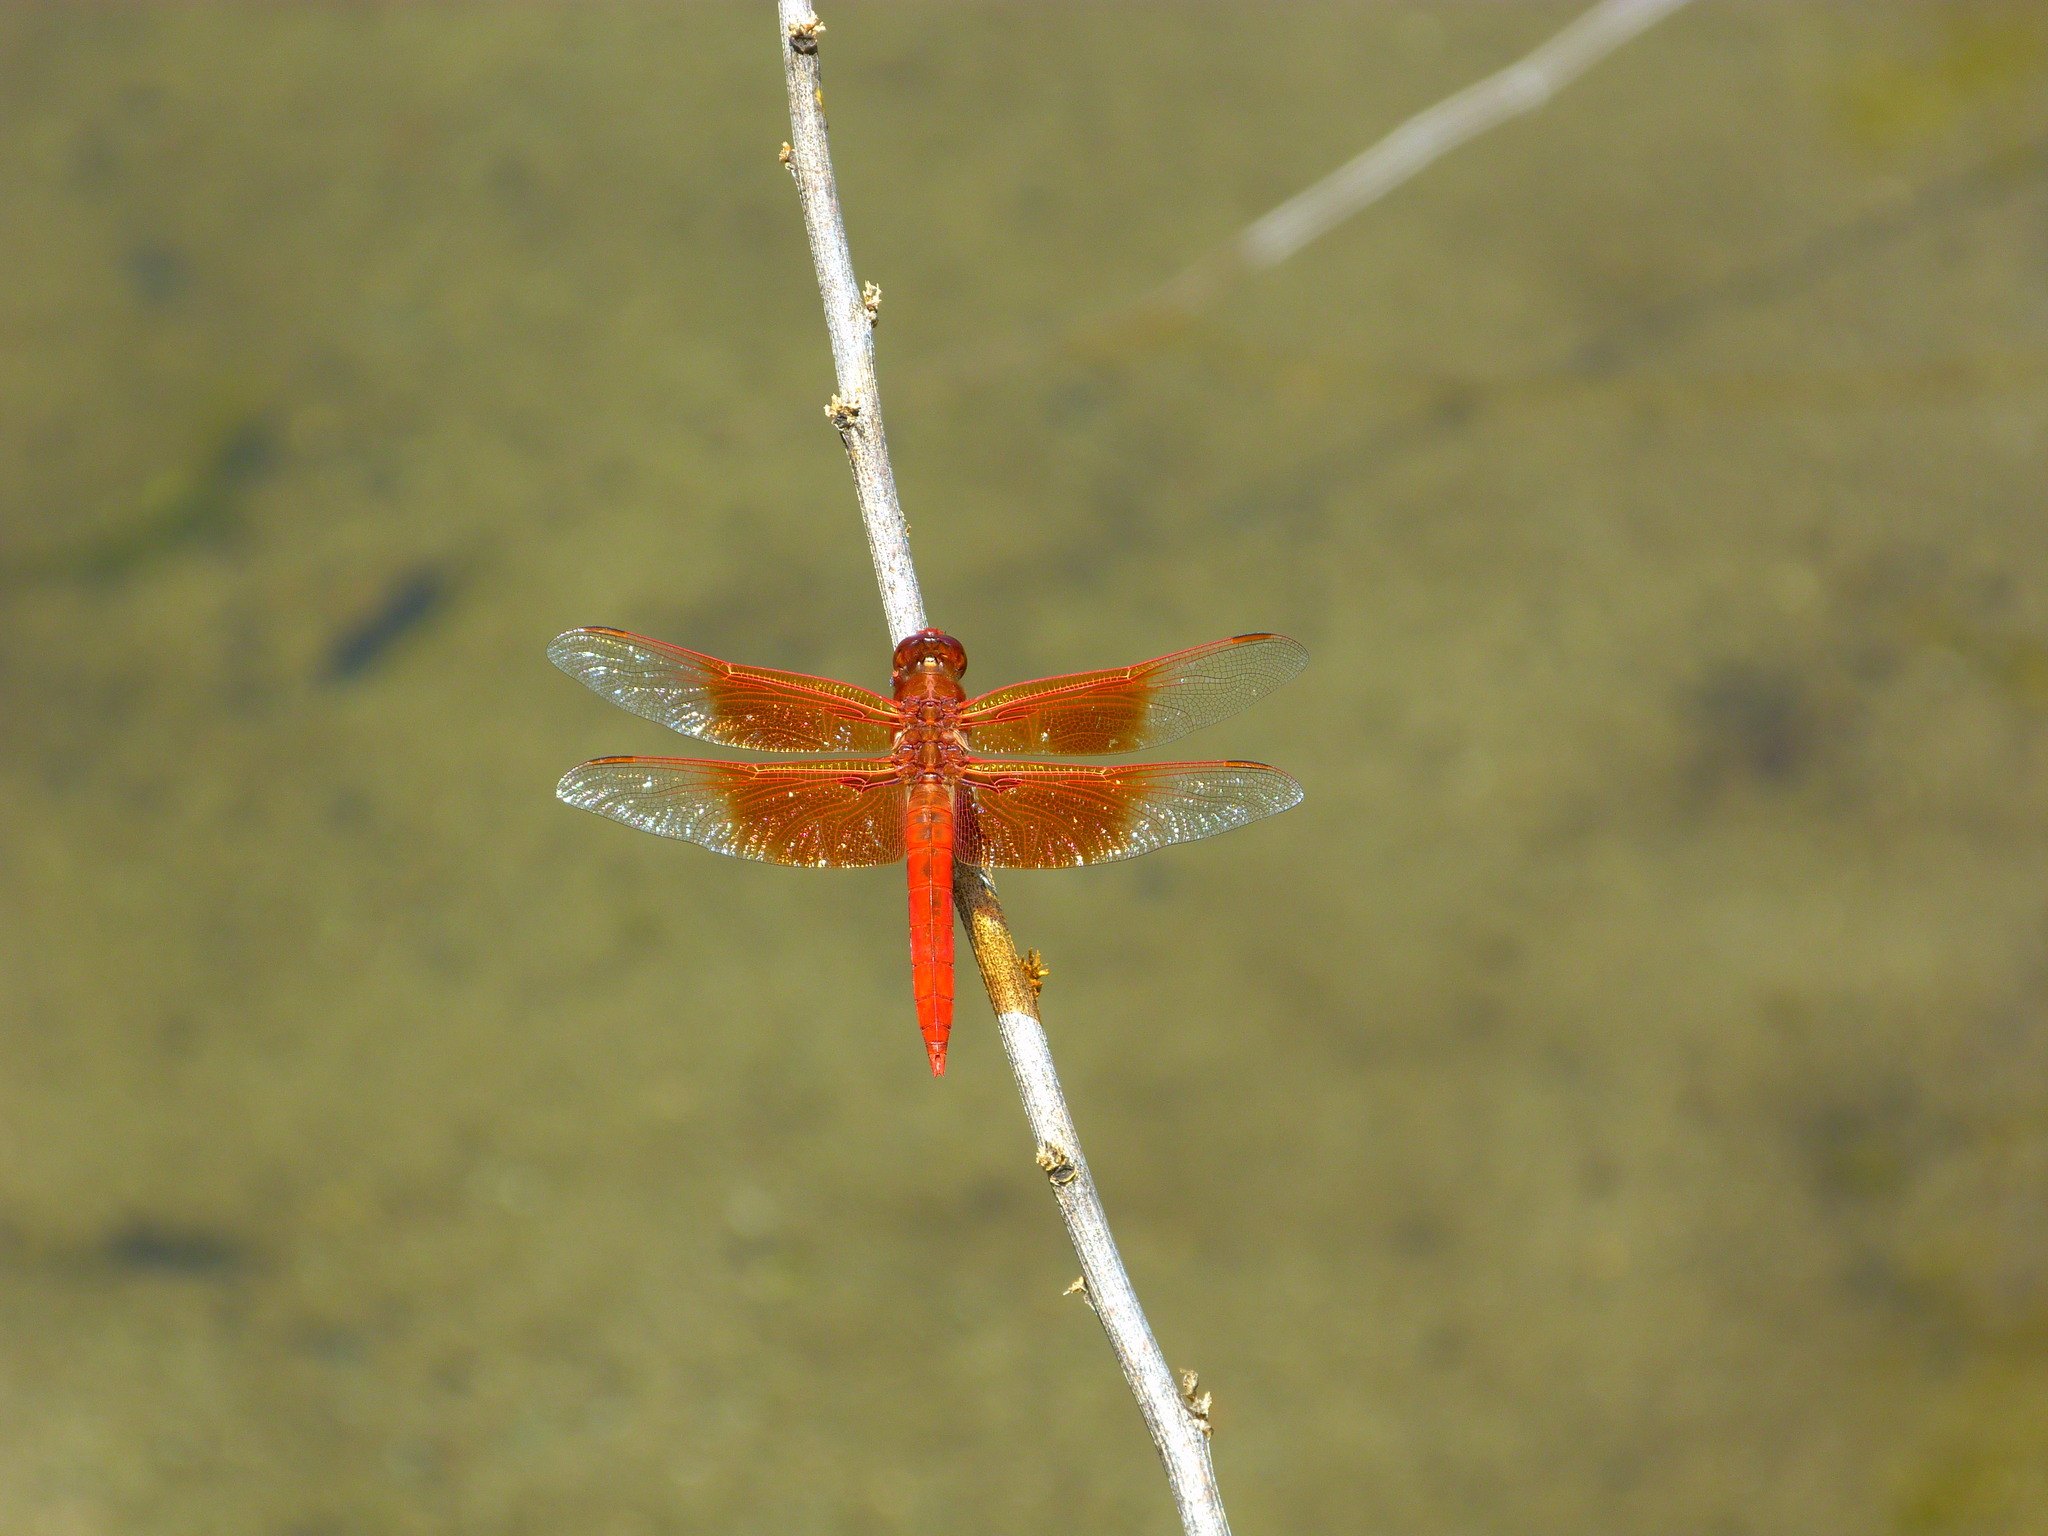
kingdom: Animalia
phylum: Arthropoda
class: Insecta
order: Odonata
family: Libellulidae
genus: Libellula
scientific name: Libellula saturata
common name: Flame skimmer
